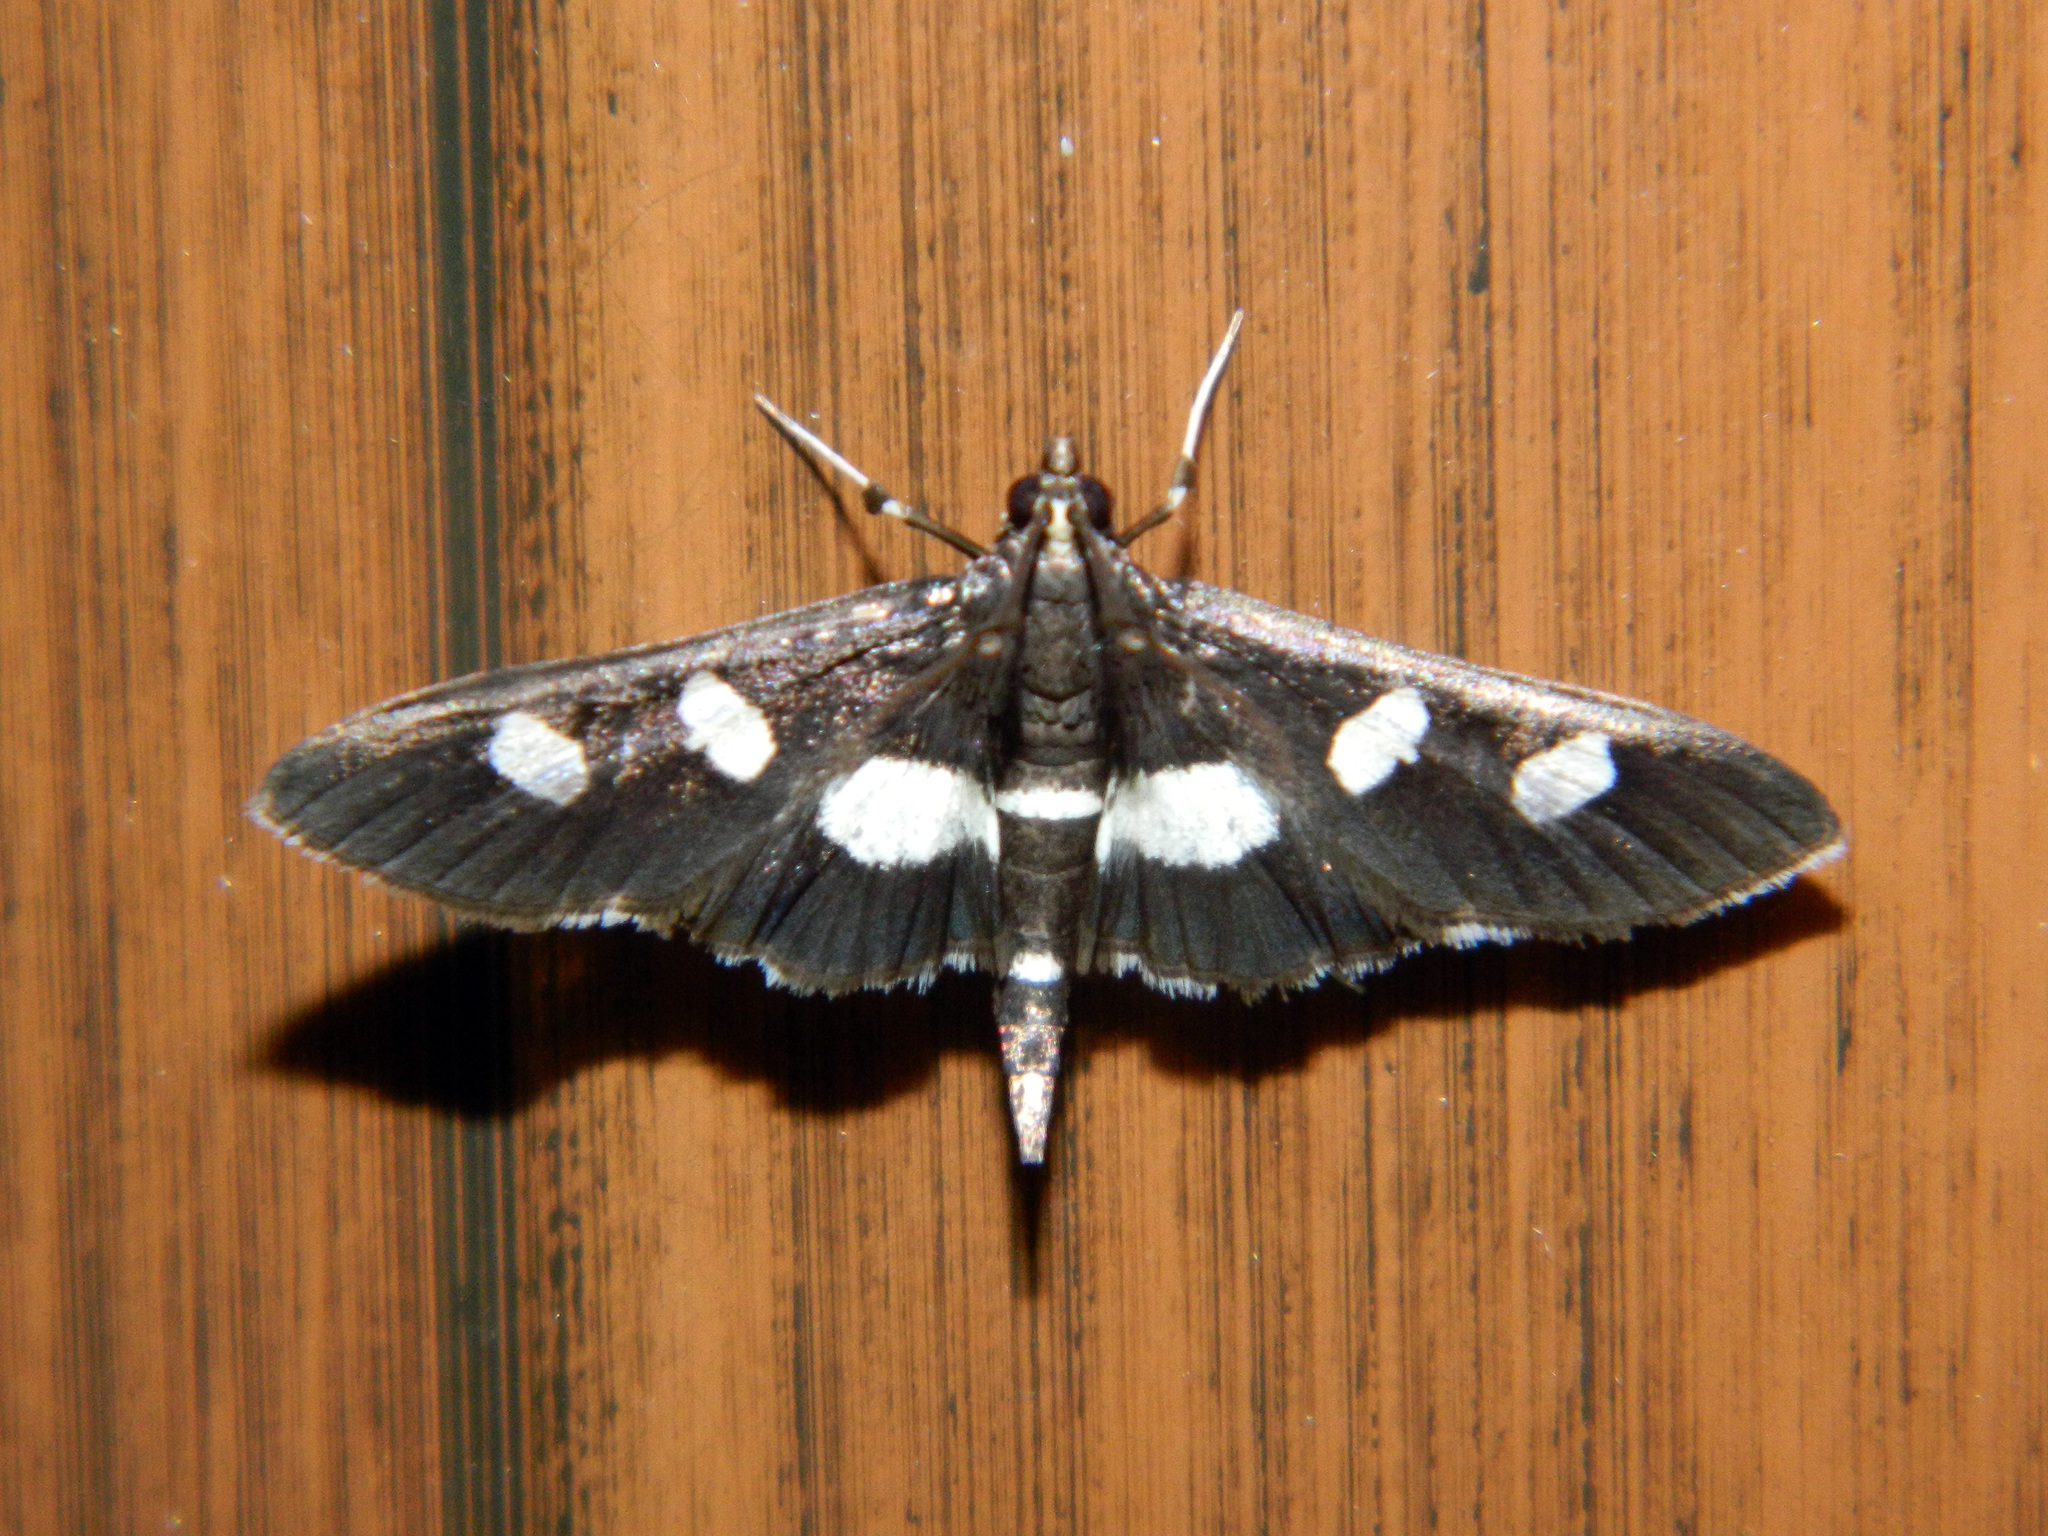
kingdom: Animalia
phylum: Arthropoda
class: Insecta
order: Lepidoptera
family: Crambidae
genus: Desmia
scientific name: Desmia
